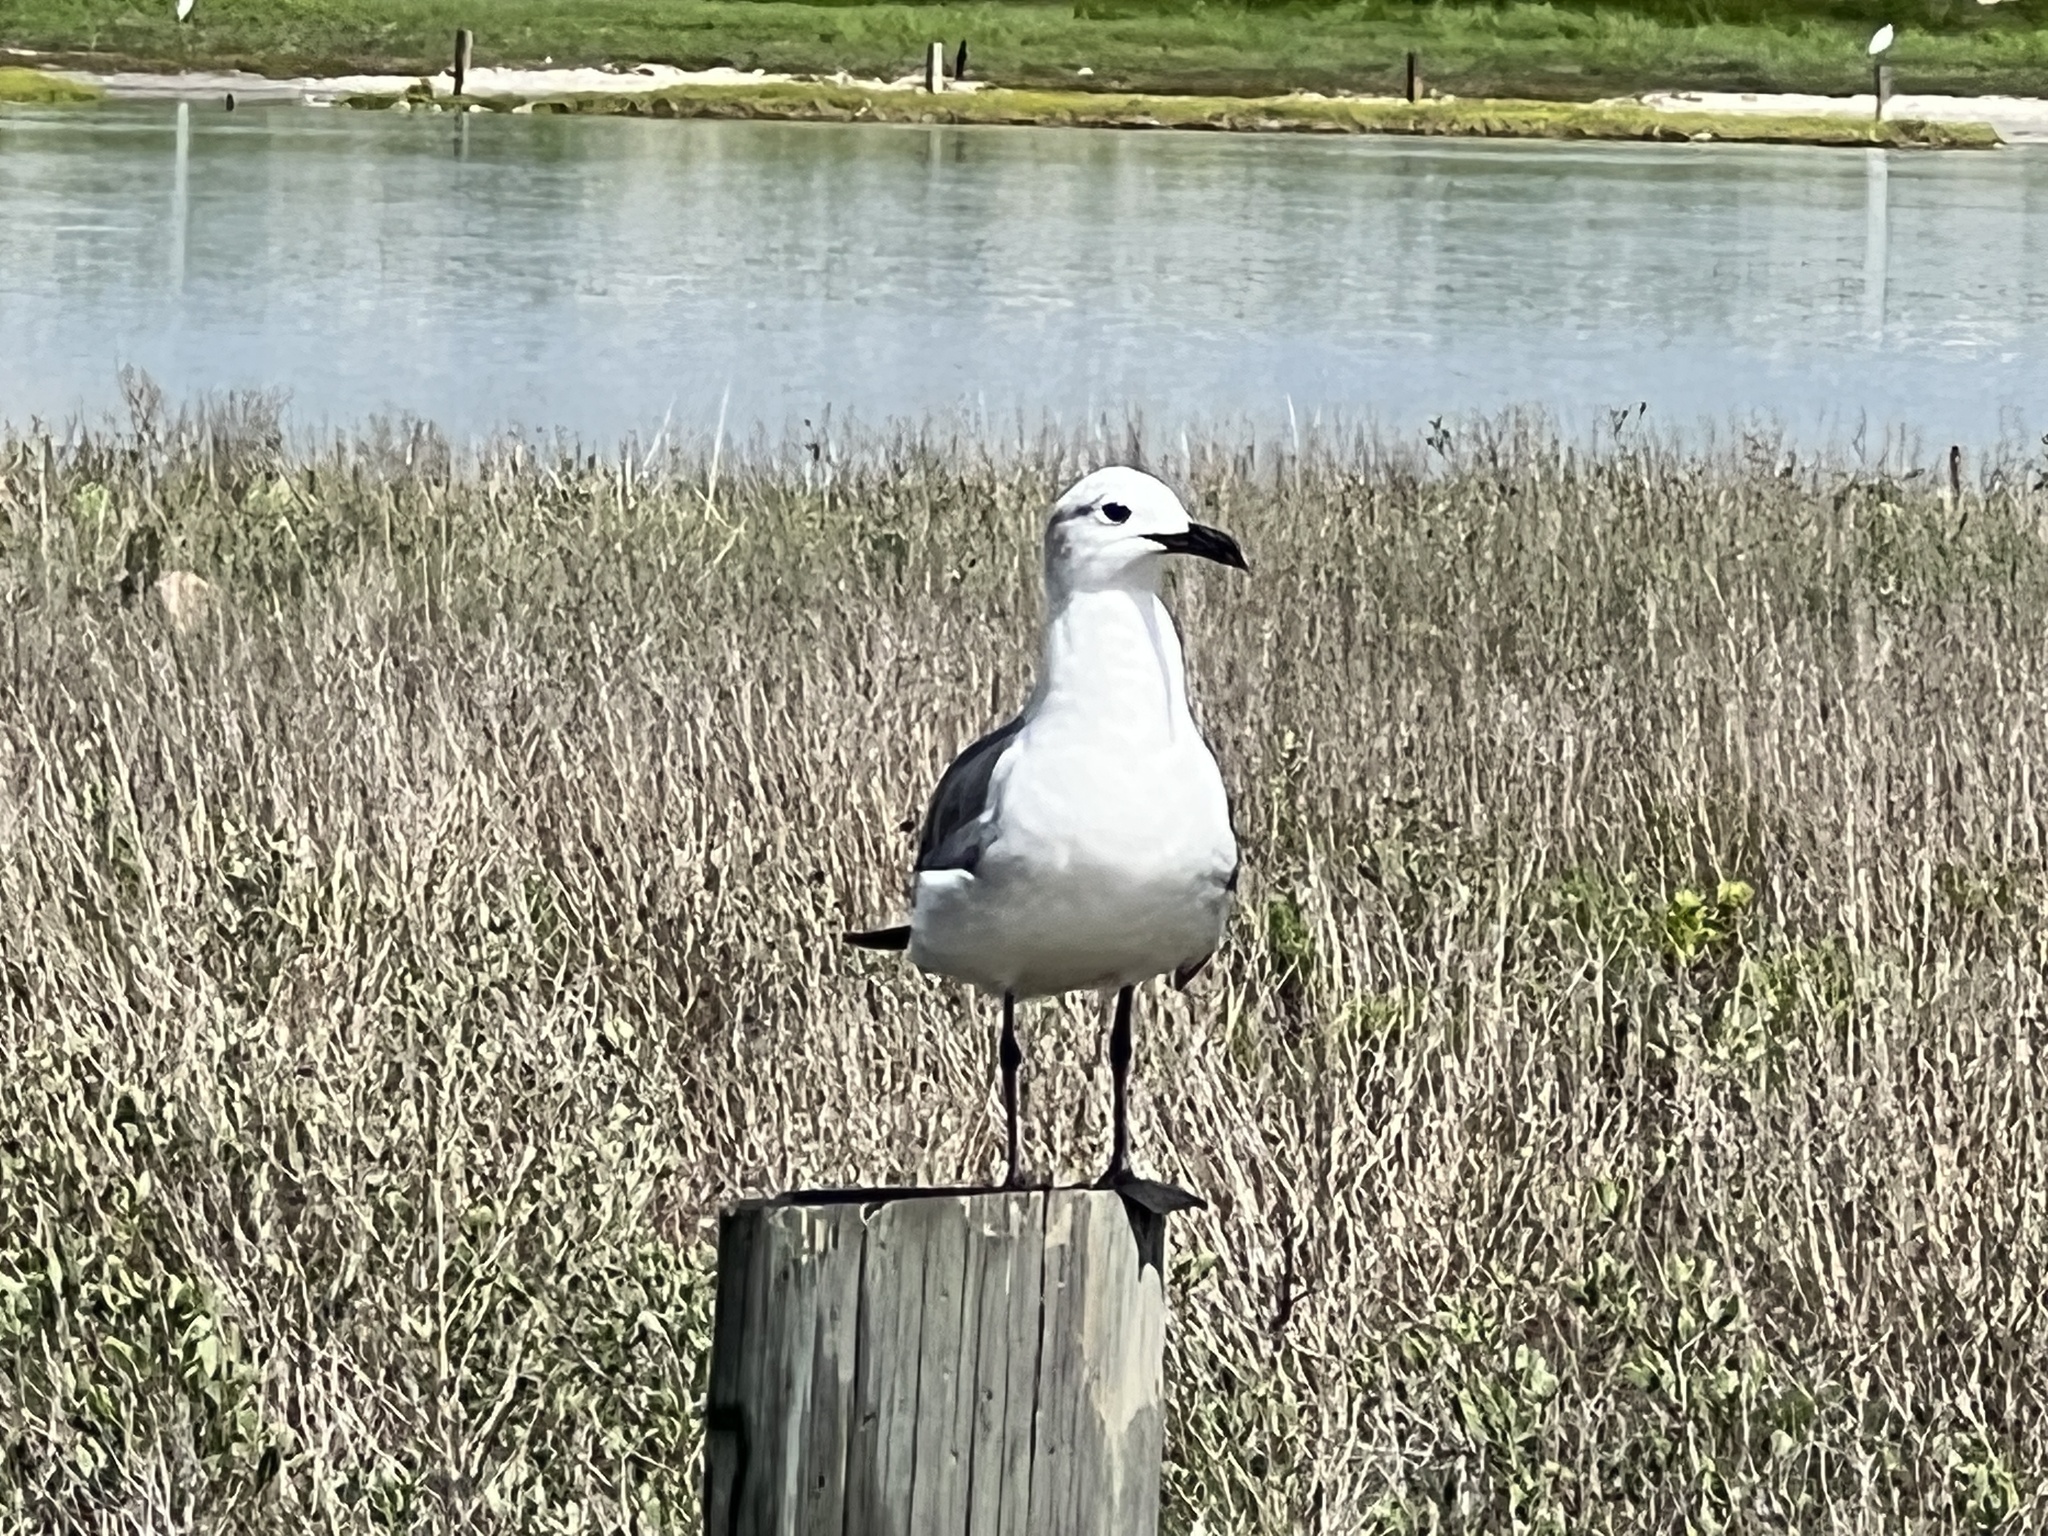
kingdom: Animalia
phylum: Chordata
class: Aves
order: Charadriiformes
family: Laridae
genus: Leucophaeus
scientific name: Leucophaeus atricilla
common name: Laughing gull
